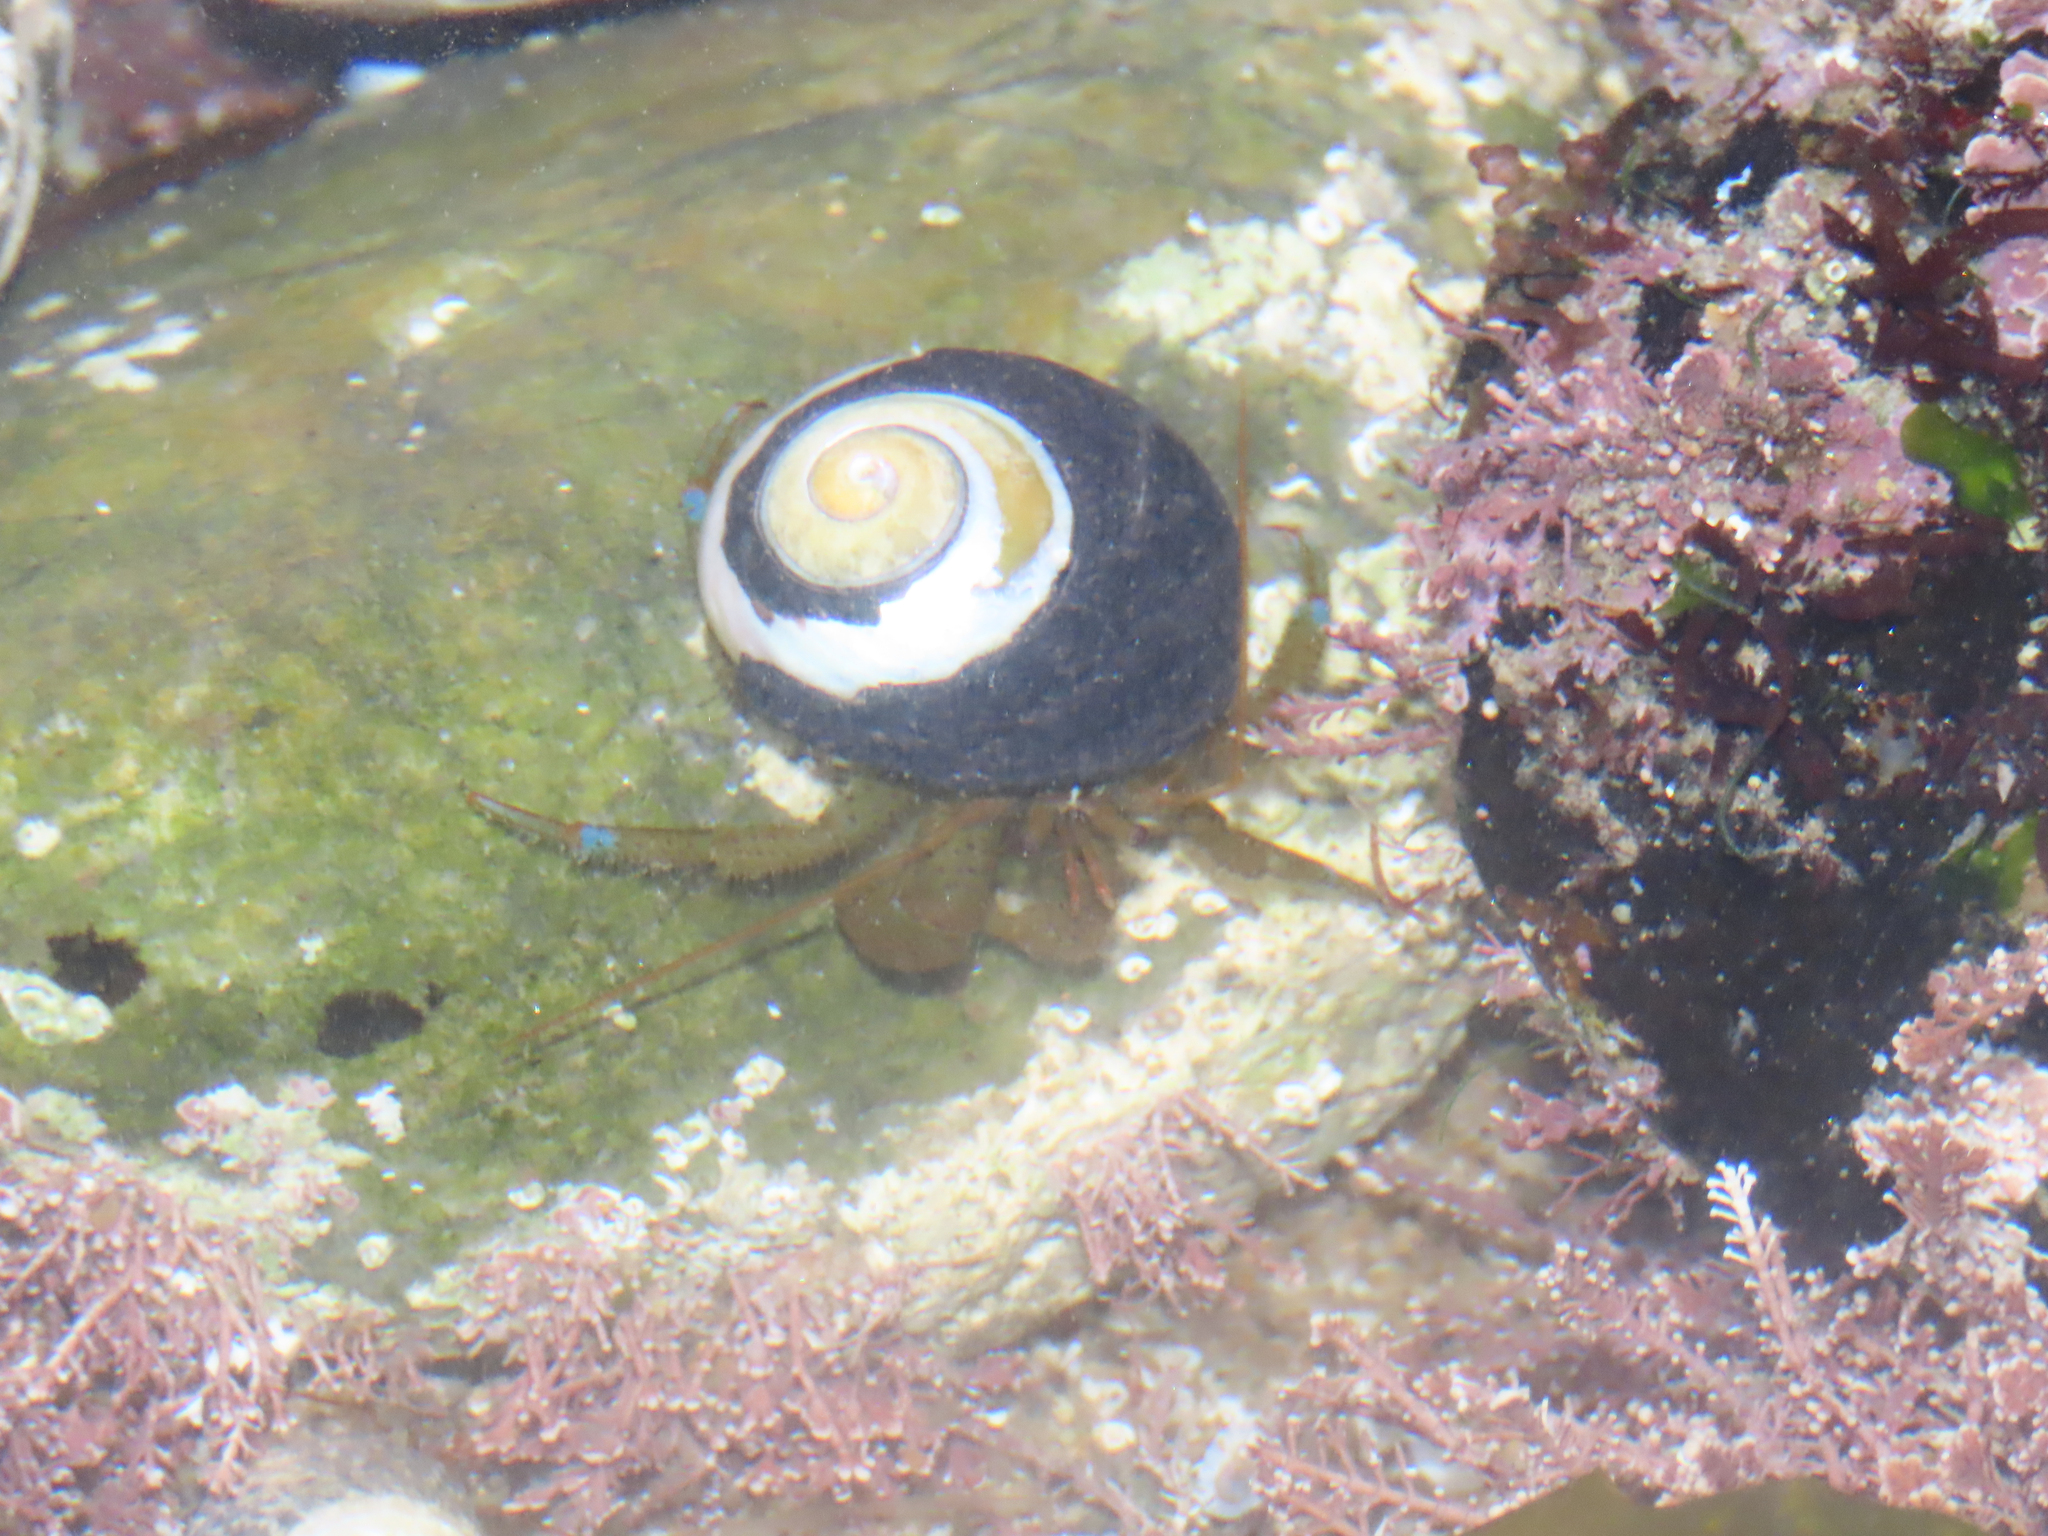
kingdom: Animalia
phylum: Arthropoda
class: Malacostraca
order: Decapoda
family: Paguridae
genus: Pagurus
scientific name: Pagurus samuelis
